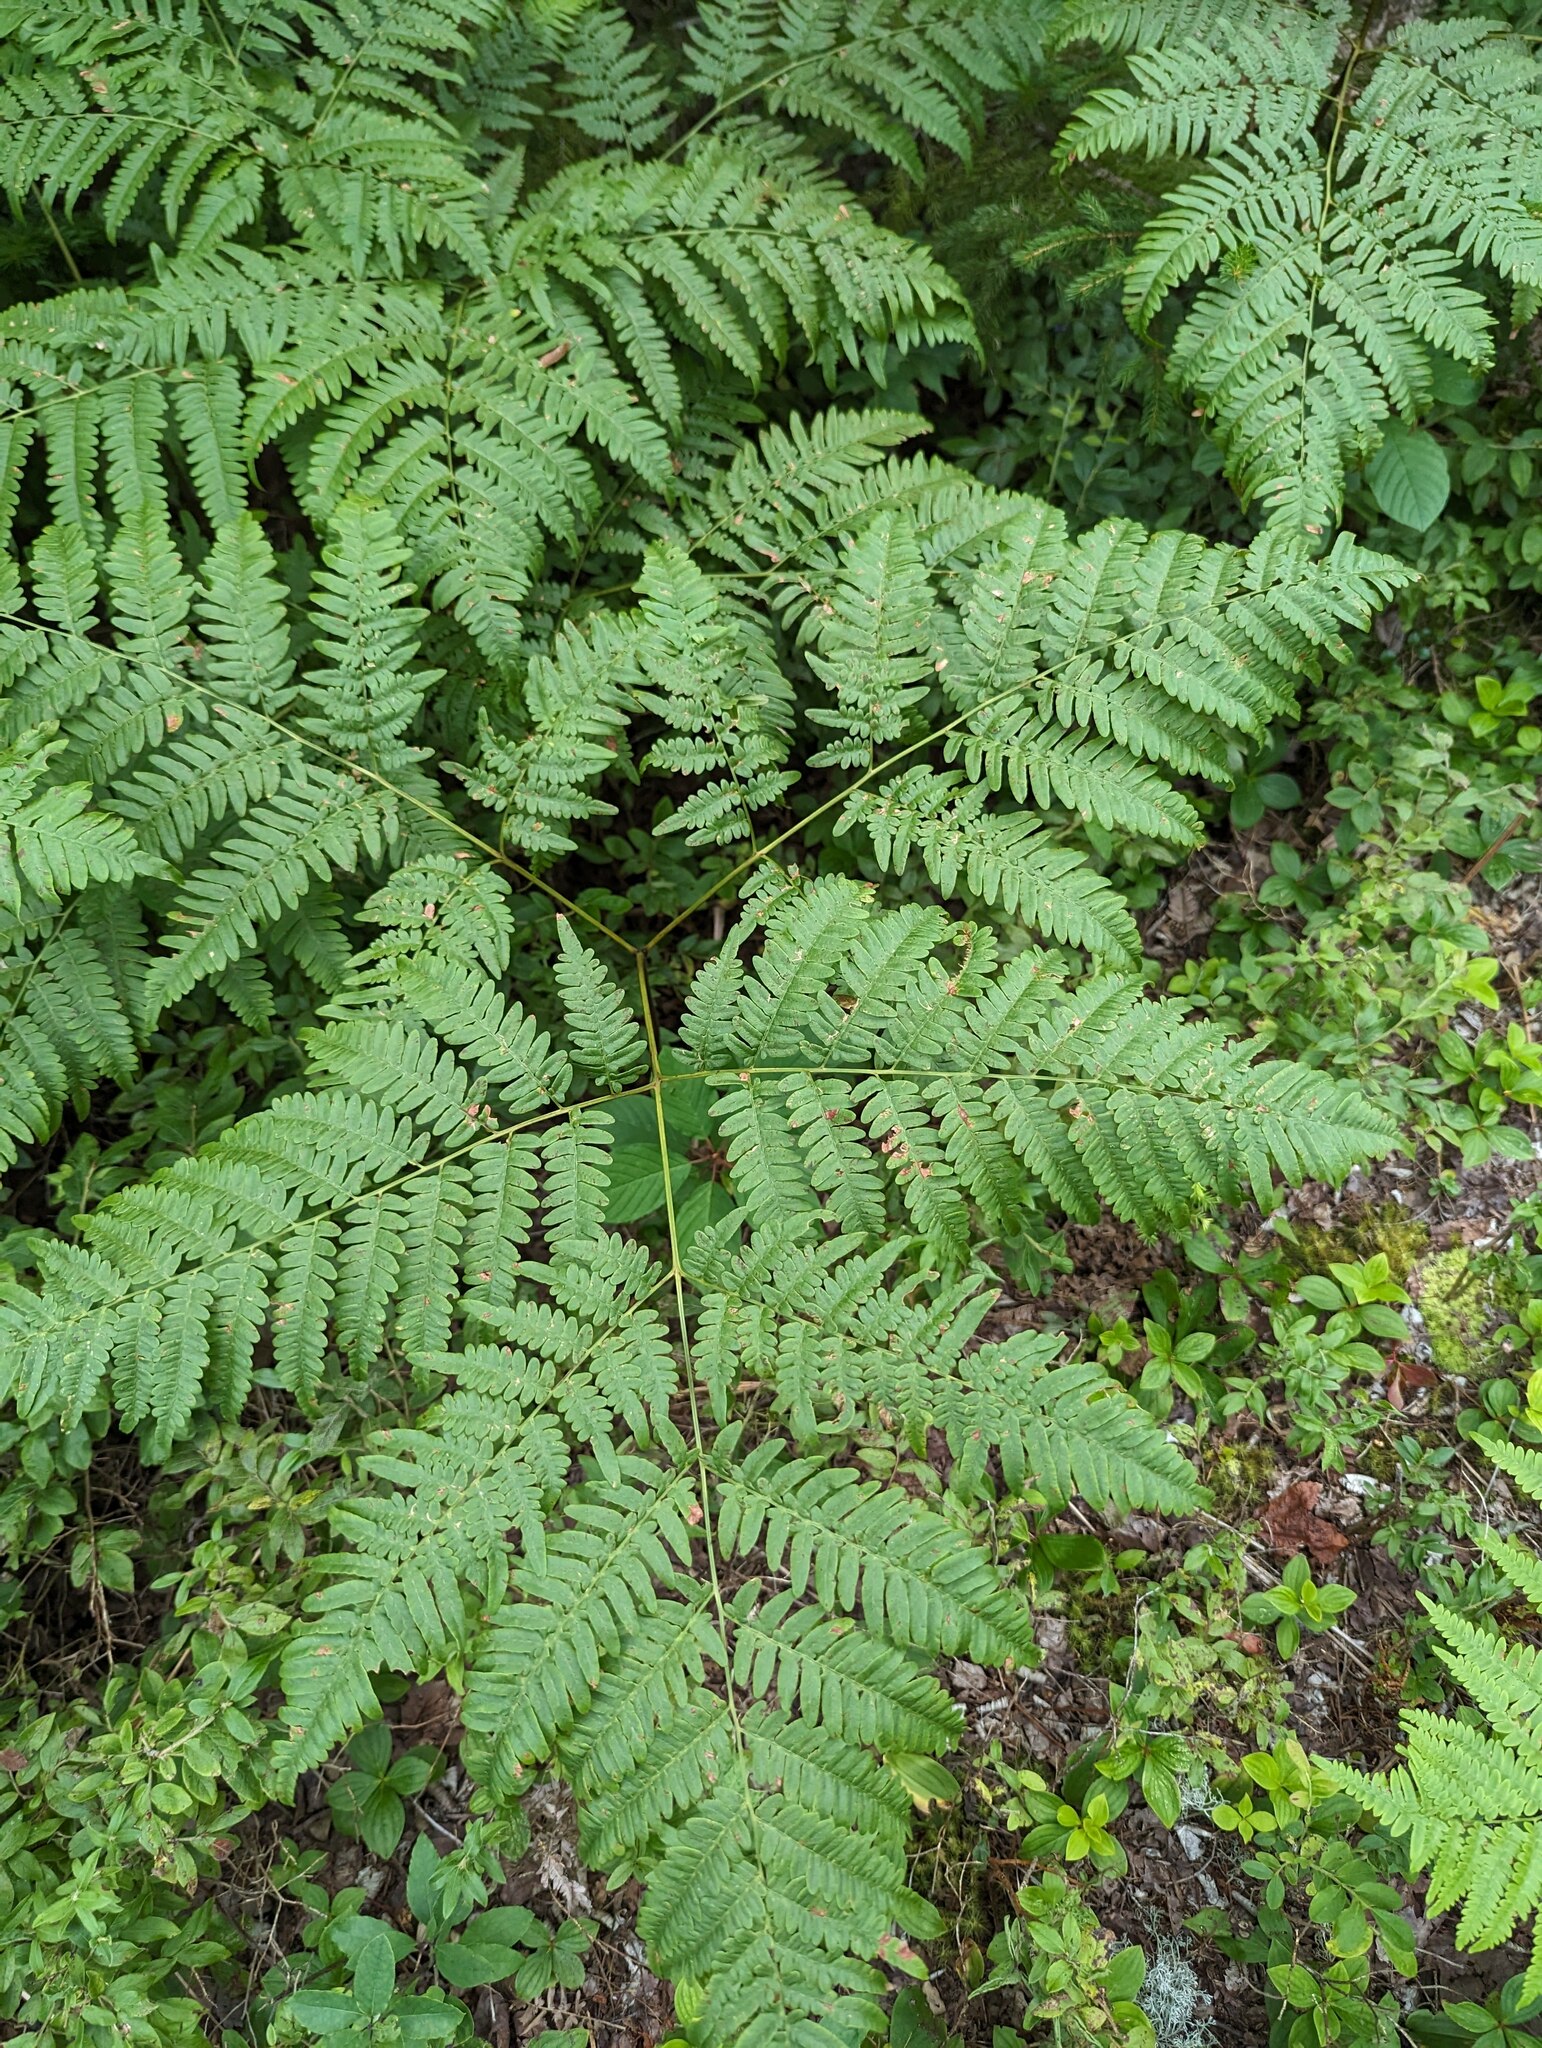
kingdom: Plantae
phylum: Tracheophyta
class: Polypodiopsida
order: Polypodiales
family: Dennstaedtiaceae
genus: Pteridium
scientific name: Pteridium aquilinum
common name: Bracken
